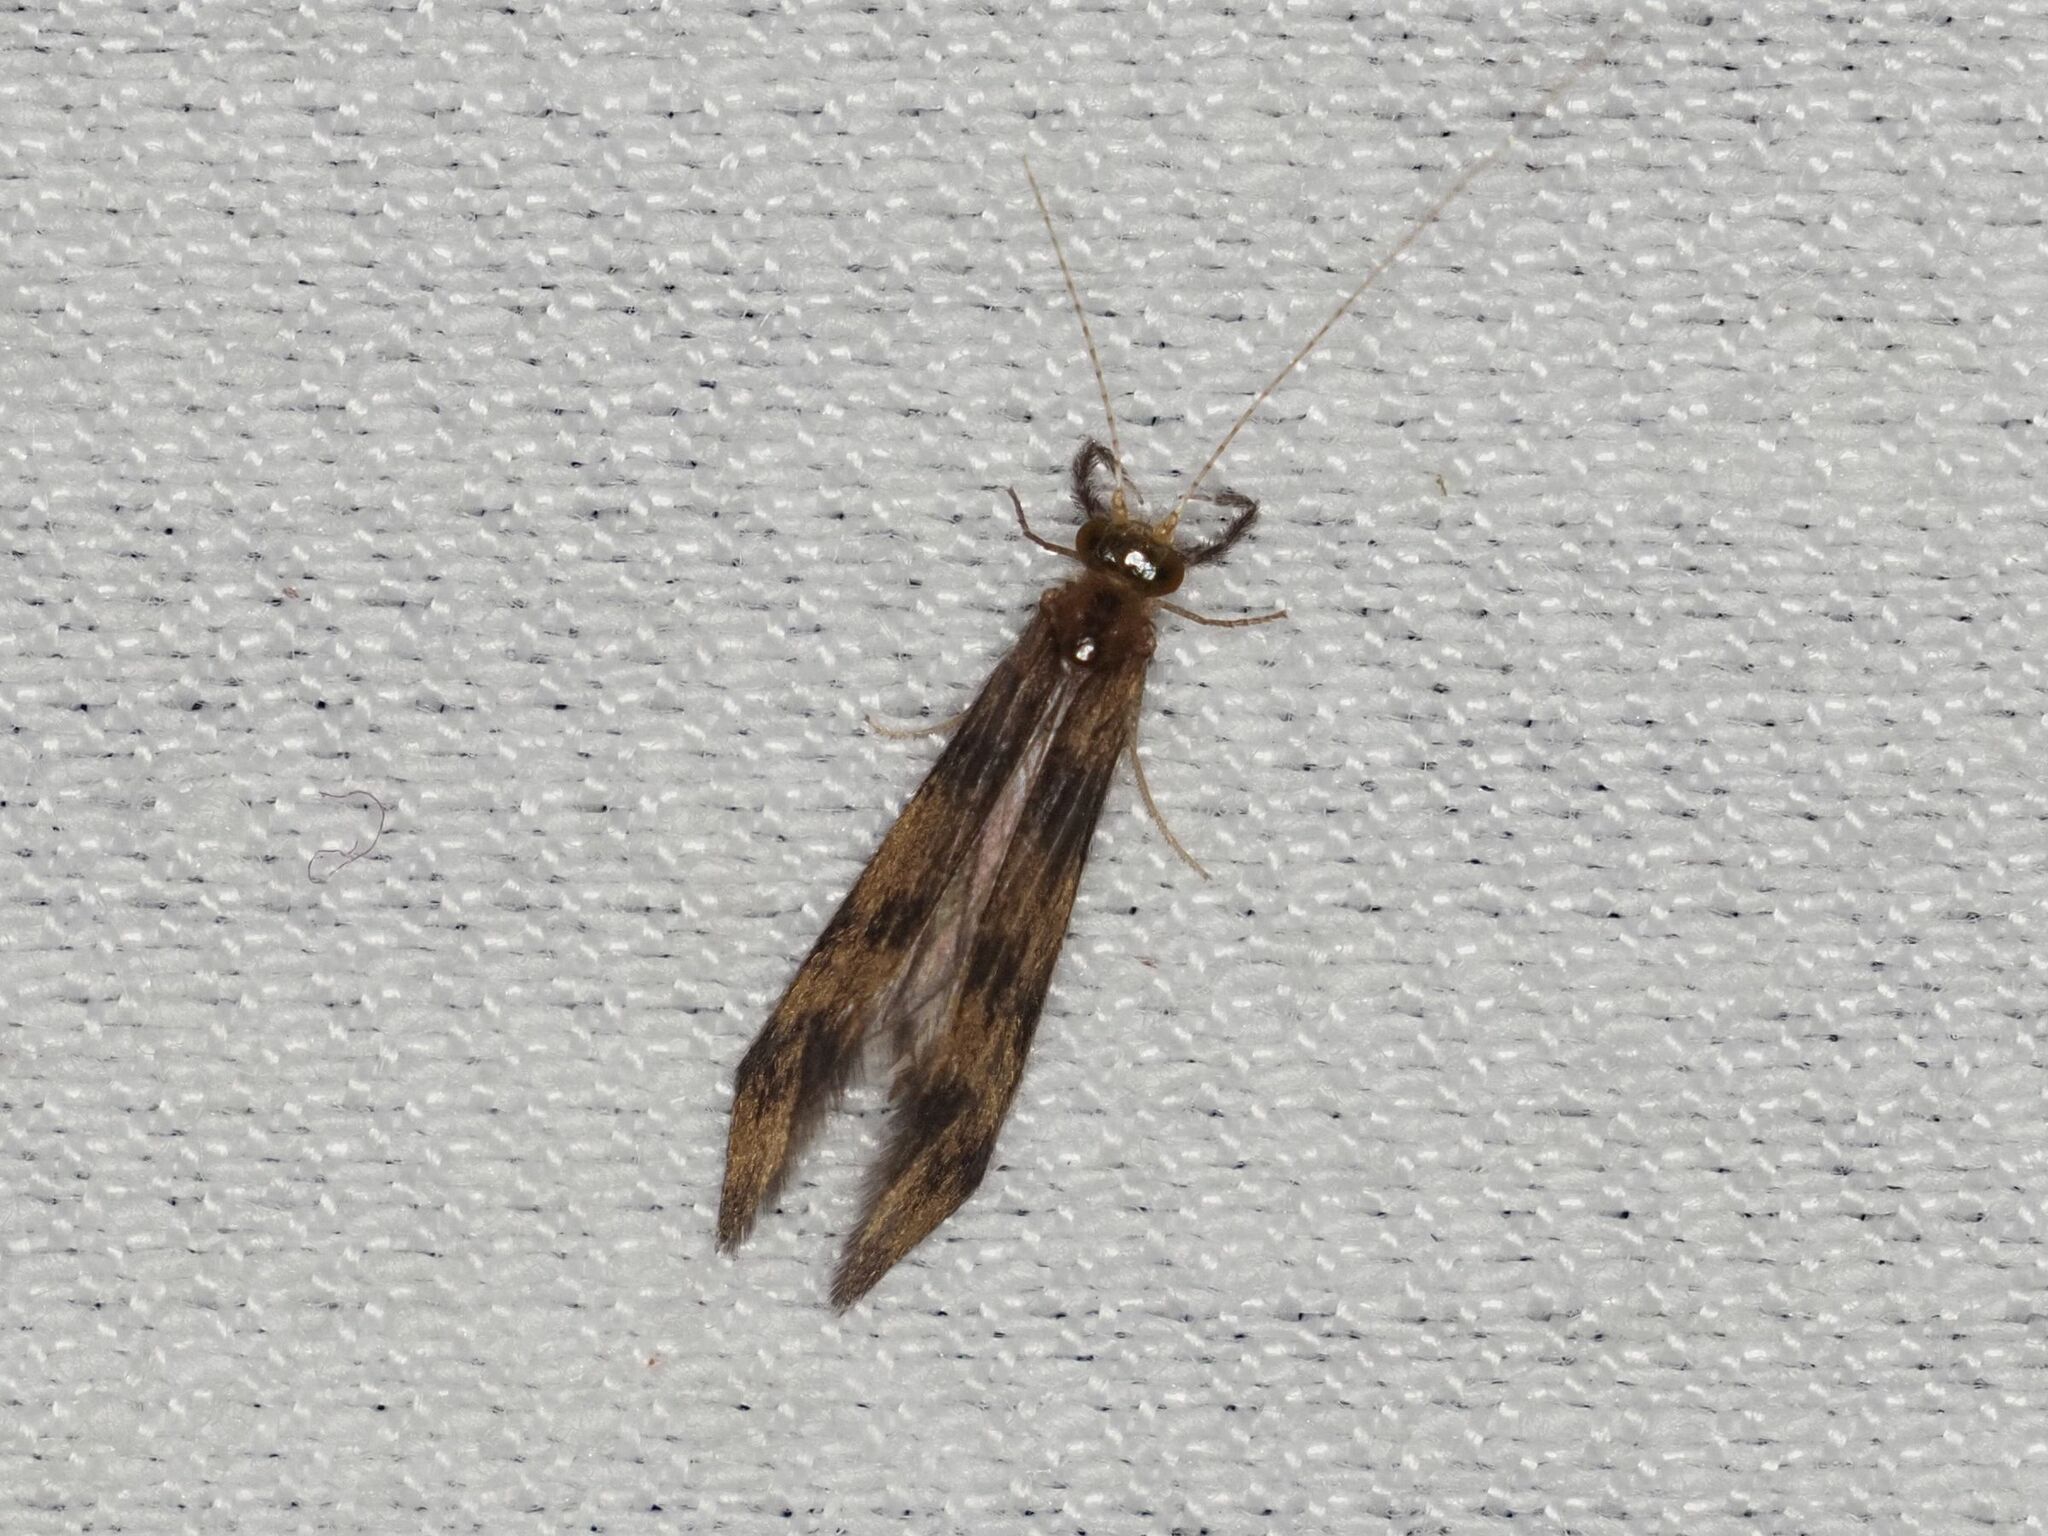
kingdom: Animalia
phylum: Arthropoda
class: Insecta
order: Trichoptera
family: Leptoceridae
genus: Mystacides
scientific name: Mystacides longicornis
